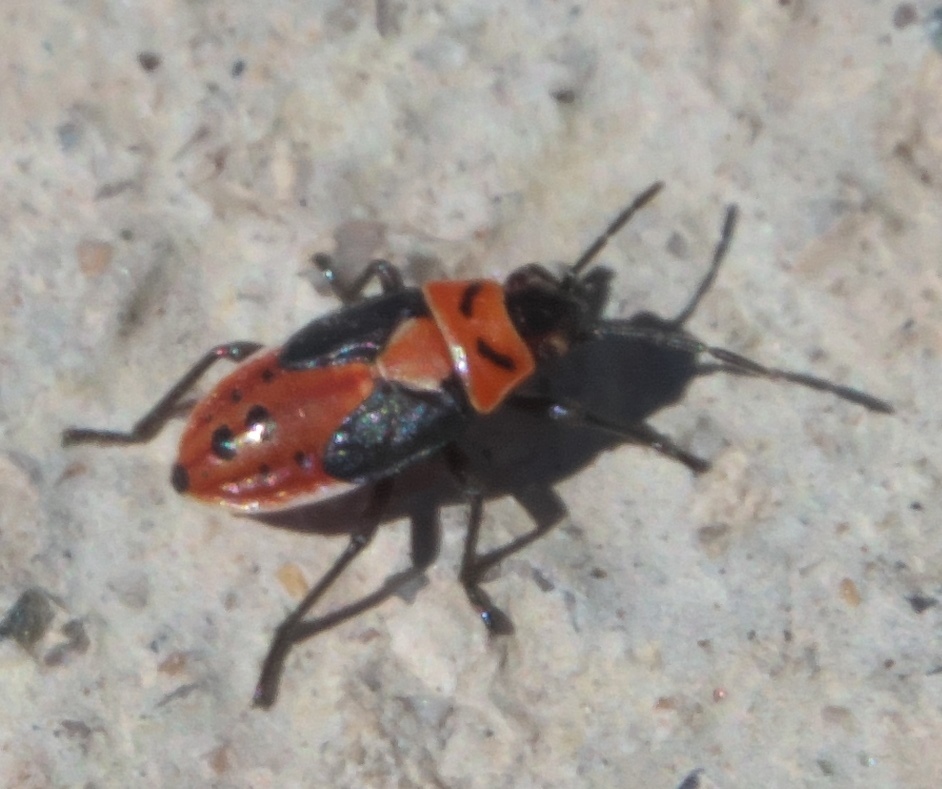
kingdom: Animalia
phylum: Arthropoda
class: Insecta
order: Hemiptera
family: Lygaeidae
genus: Lygaeus
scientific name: Lygaeus
